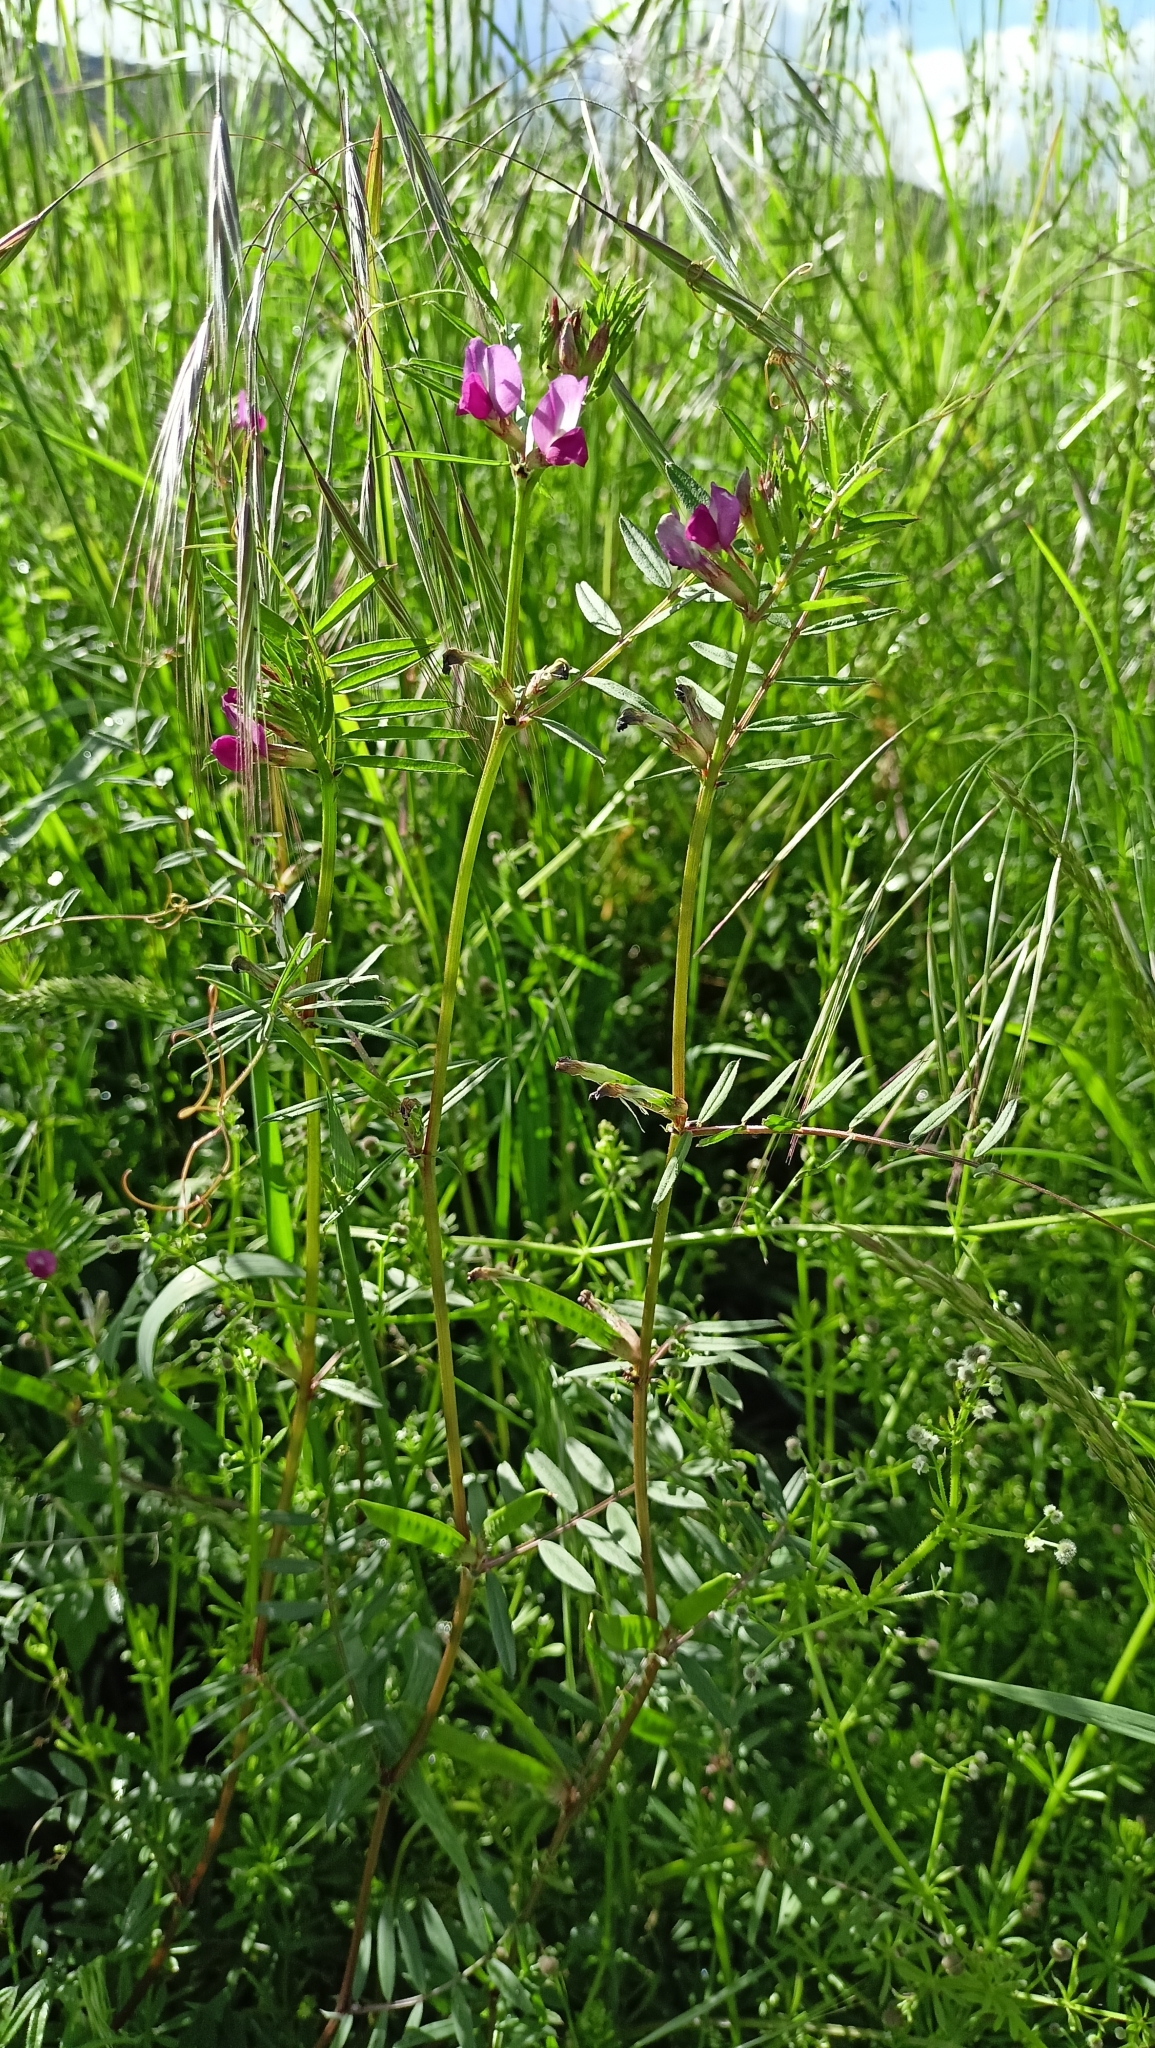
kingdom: Plantae
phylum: Tracheophyta
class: Magnoliopsida
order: Fabales
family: Fabaceae
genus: Vicia
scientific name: Vicia sativa
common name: Garden vetch
